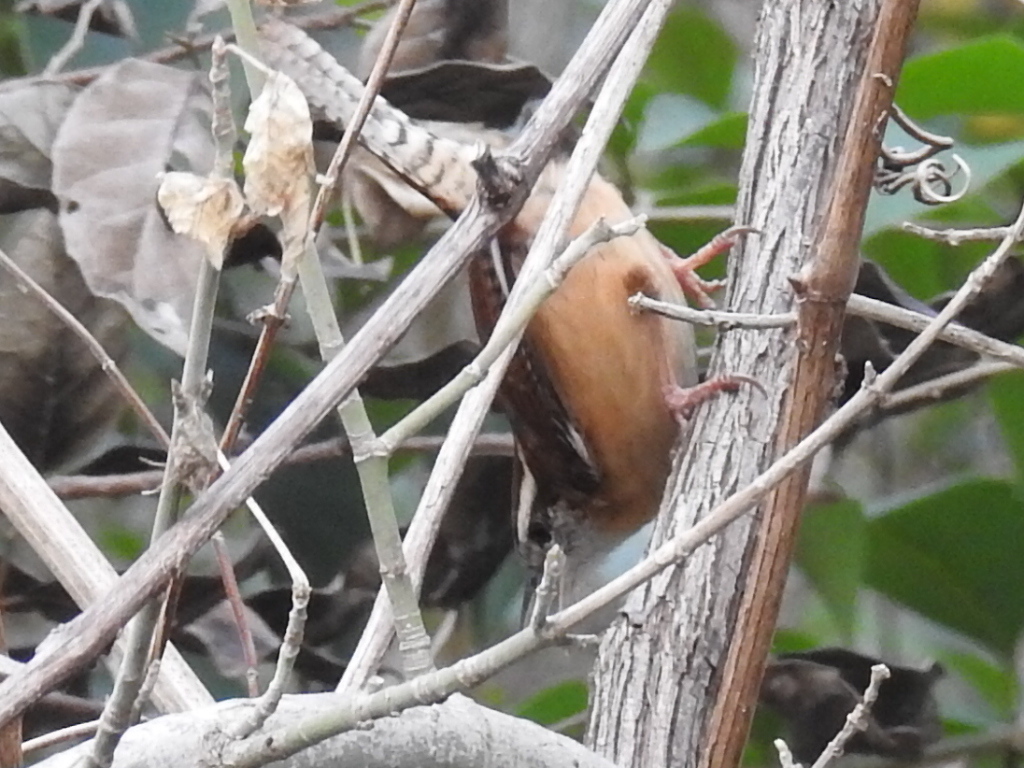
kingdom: Animalia
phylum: Chordata
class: Aves
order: Passeriformes
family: Troglodytidae
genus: Thryothorus
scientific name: Thryothorus ludovicianus
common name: Carolina wren
